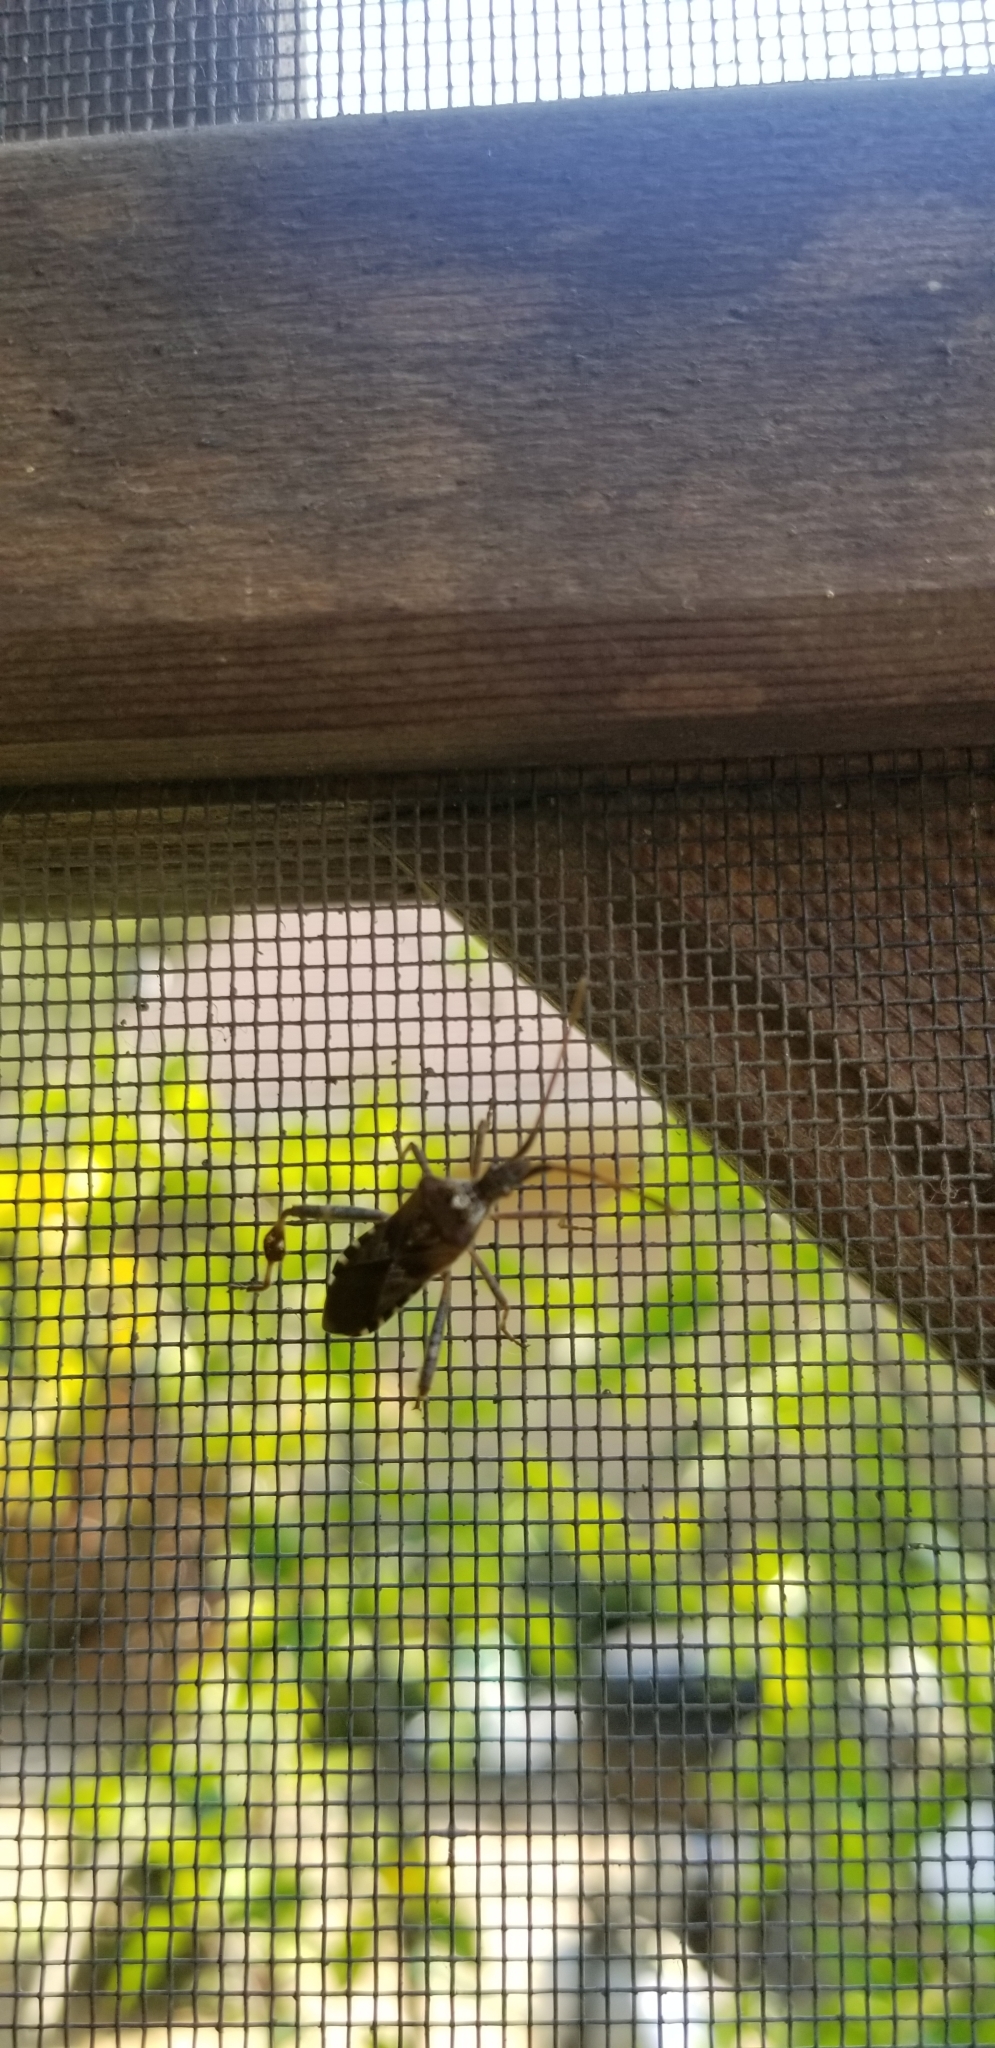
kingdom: Animalia
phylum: Arthropoda
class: Insecta
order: Hemiptera
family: Coreidae
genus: Leptoglossus
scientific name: Leptoglossus occidentalis
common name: Western conifer-seed bug
